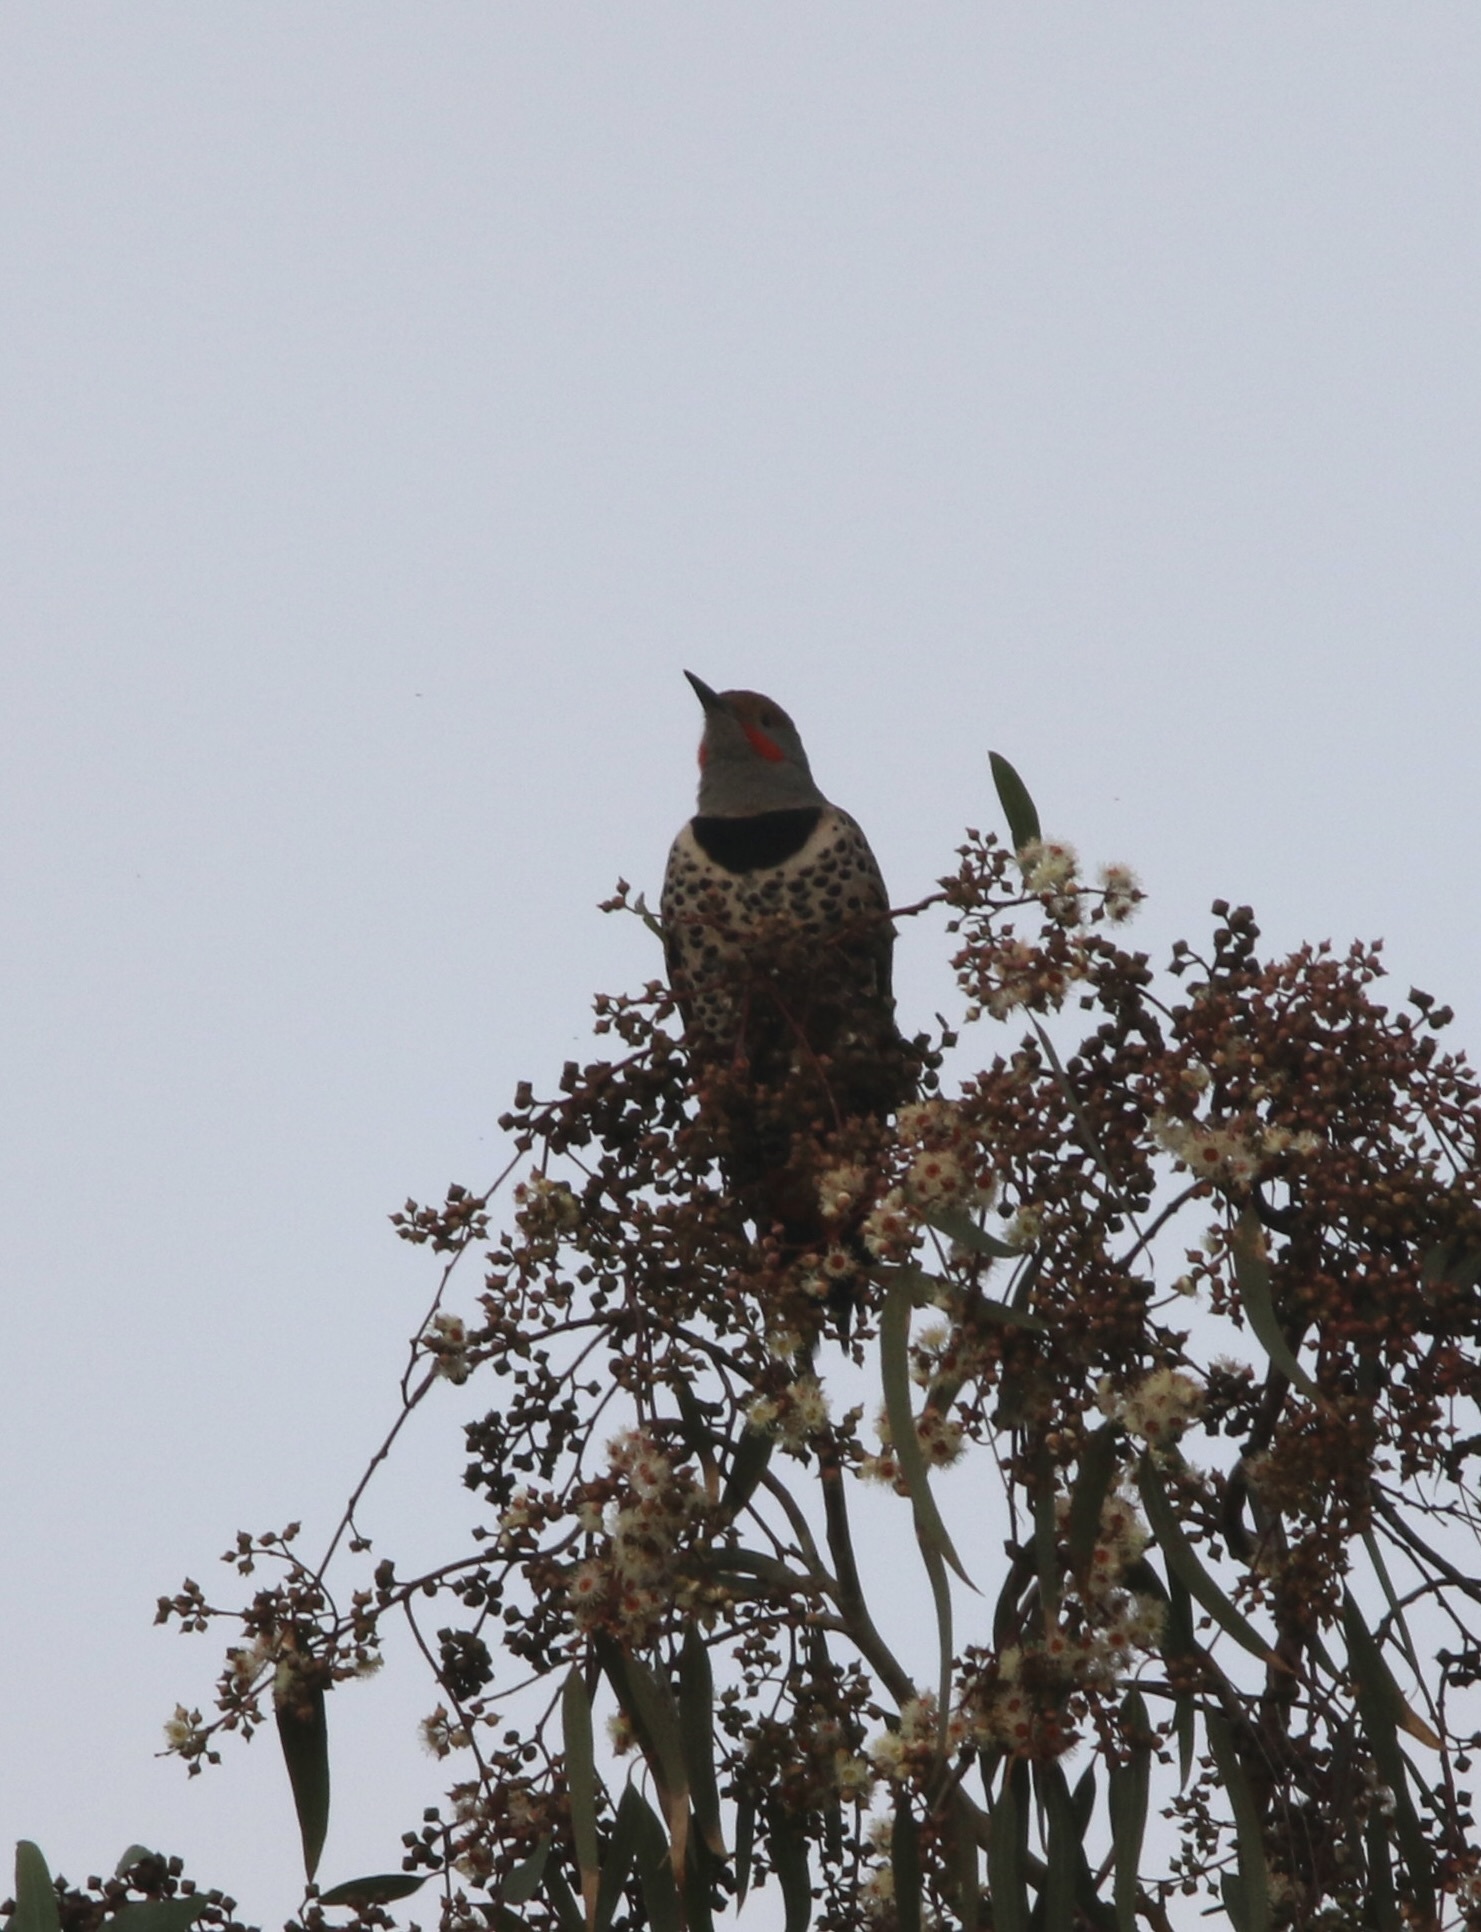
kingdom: Animalia
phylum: Chordata
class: Aves
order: Piciformes
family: Picidae
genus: Colaptes
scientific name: Colaptes auratus
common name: Northern flicker
